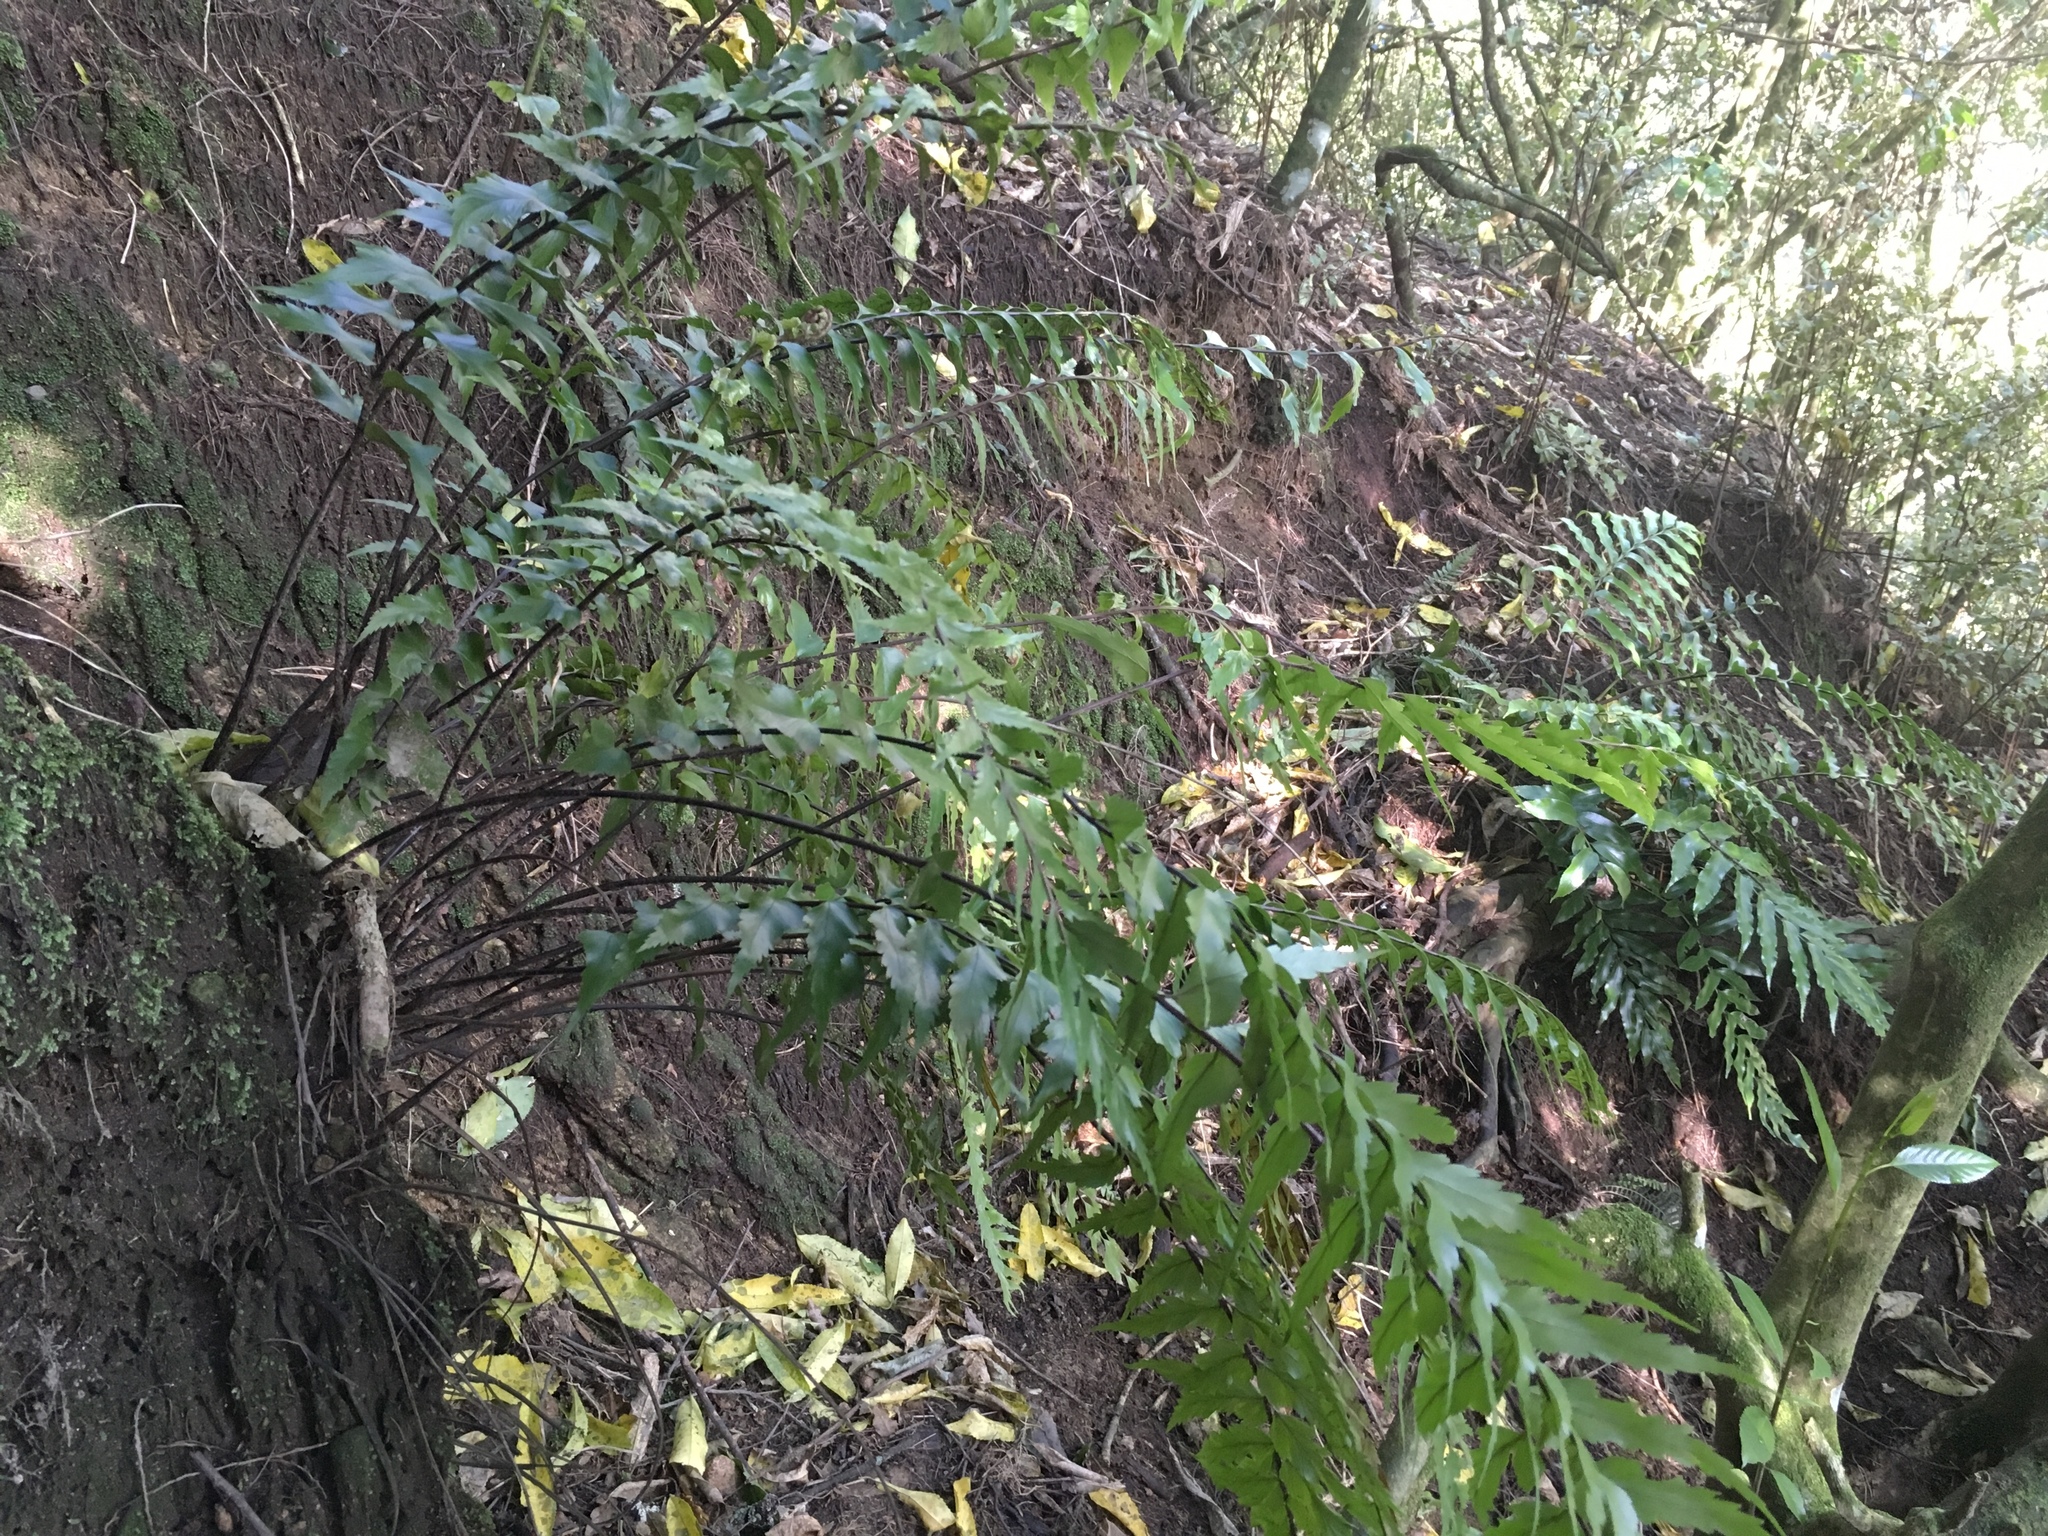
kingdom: Plantae
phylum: Tracheophyta
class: Polypodiopsida
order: Polypodiales
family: Aspleniaceae
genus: Asplenium
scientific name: Asplenium polyodon
